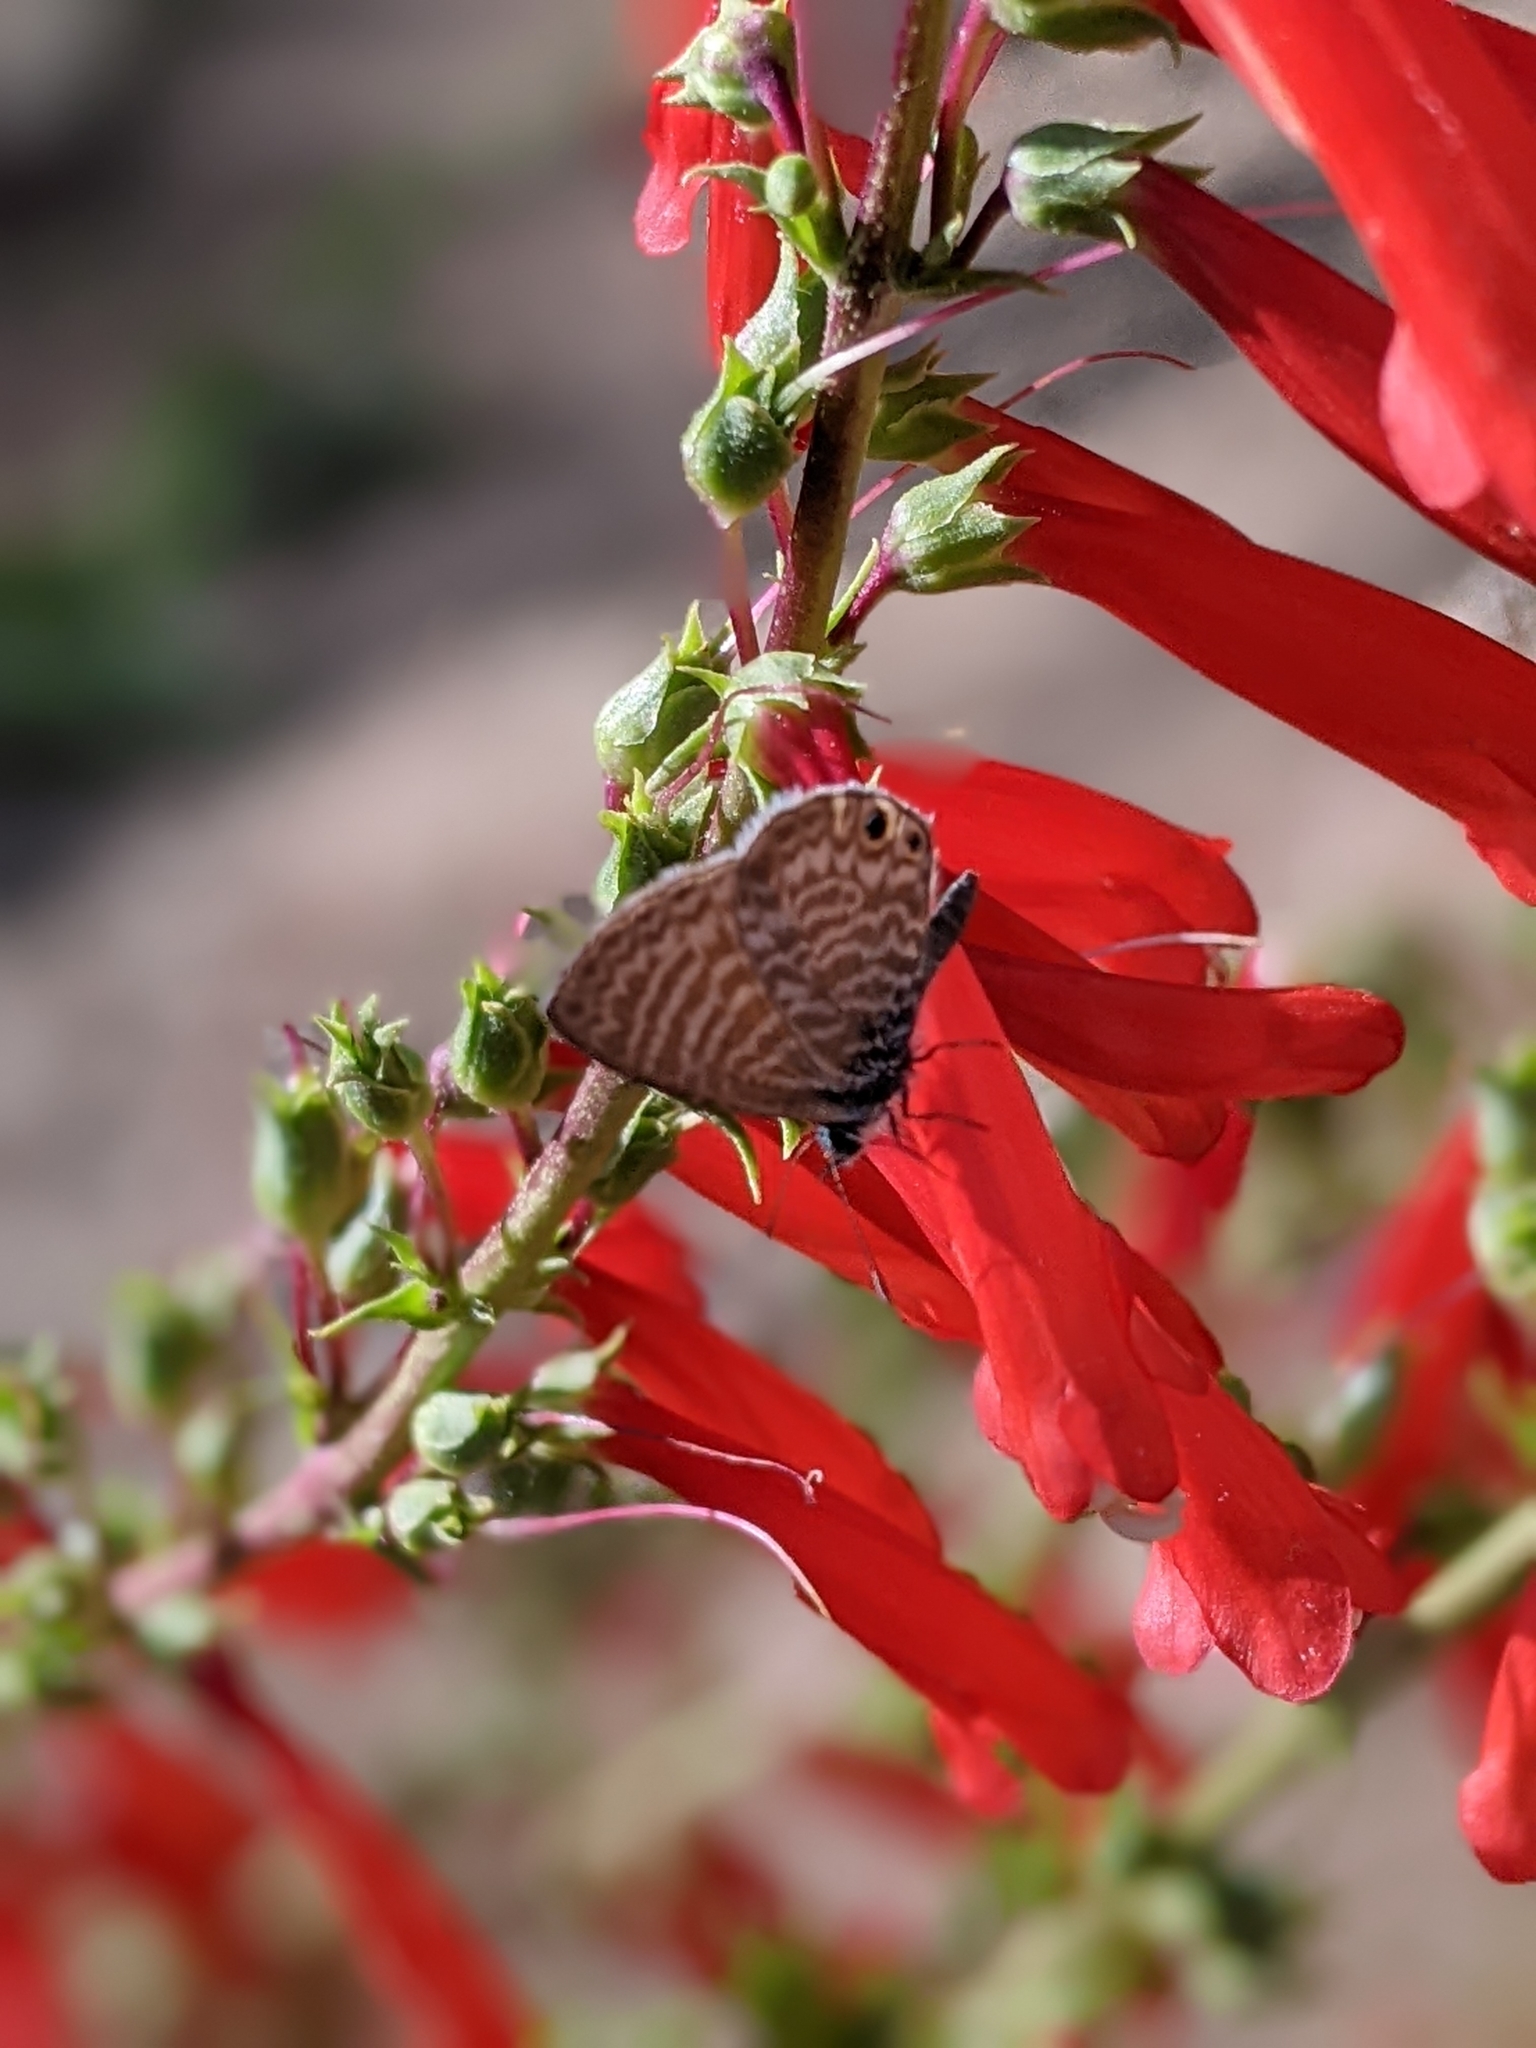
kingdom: Animalia
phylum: Arthropoda
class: Insecta
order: Lepidoptera
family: Lycaenidae
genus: Leptotes
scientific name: Leptotes marina
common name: Marine blue
